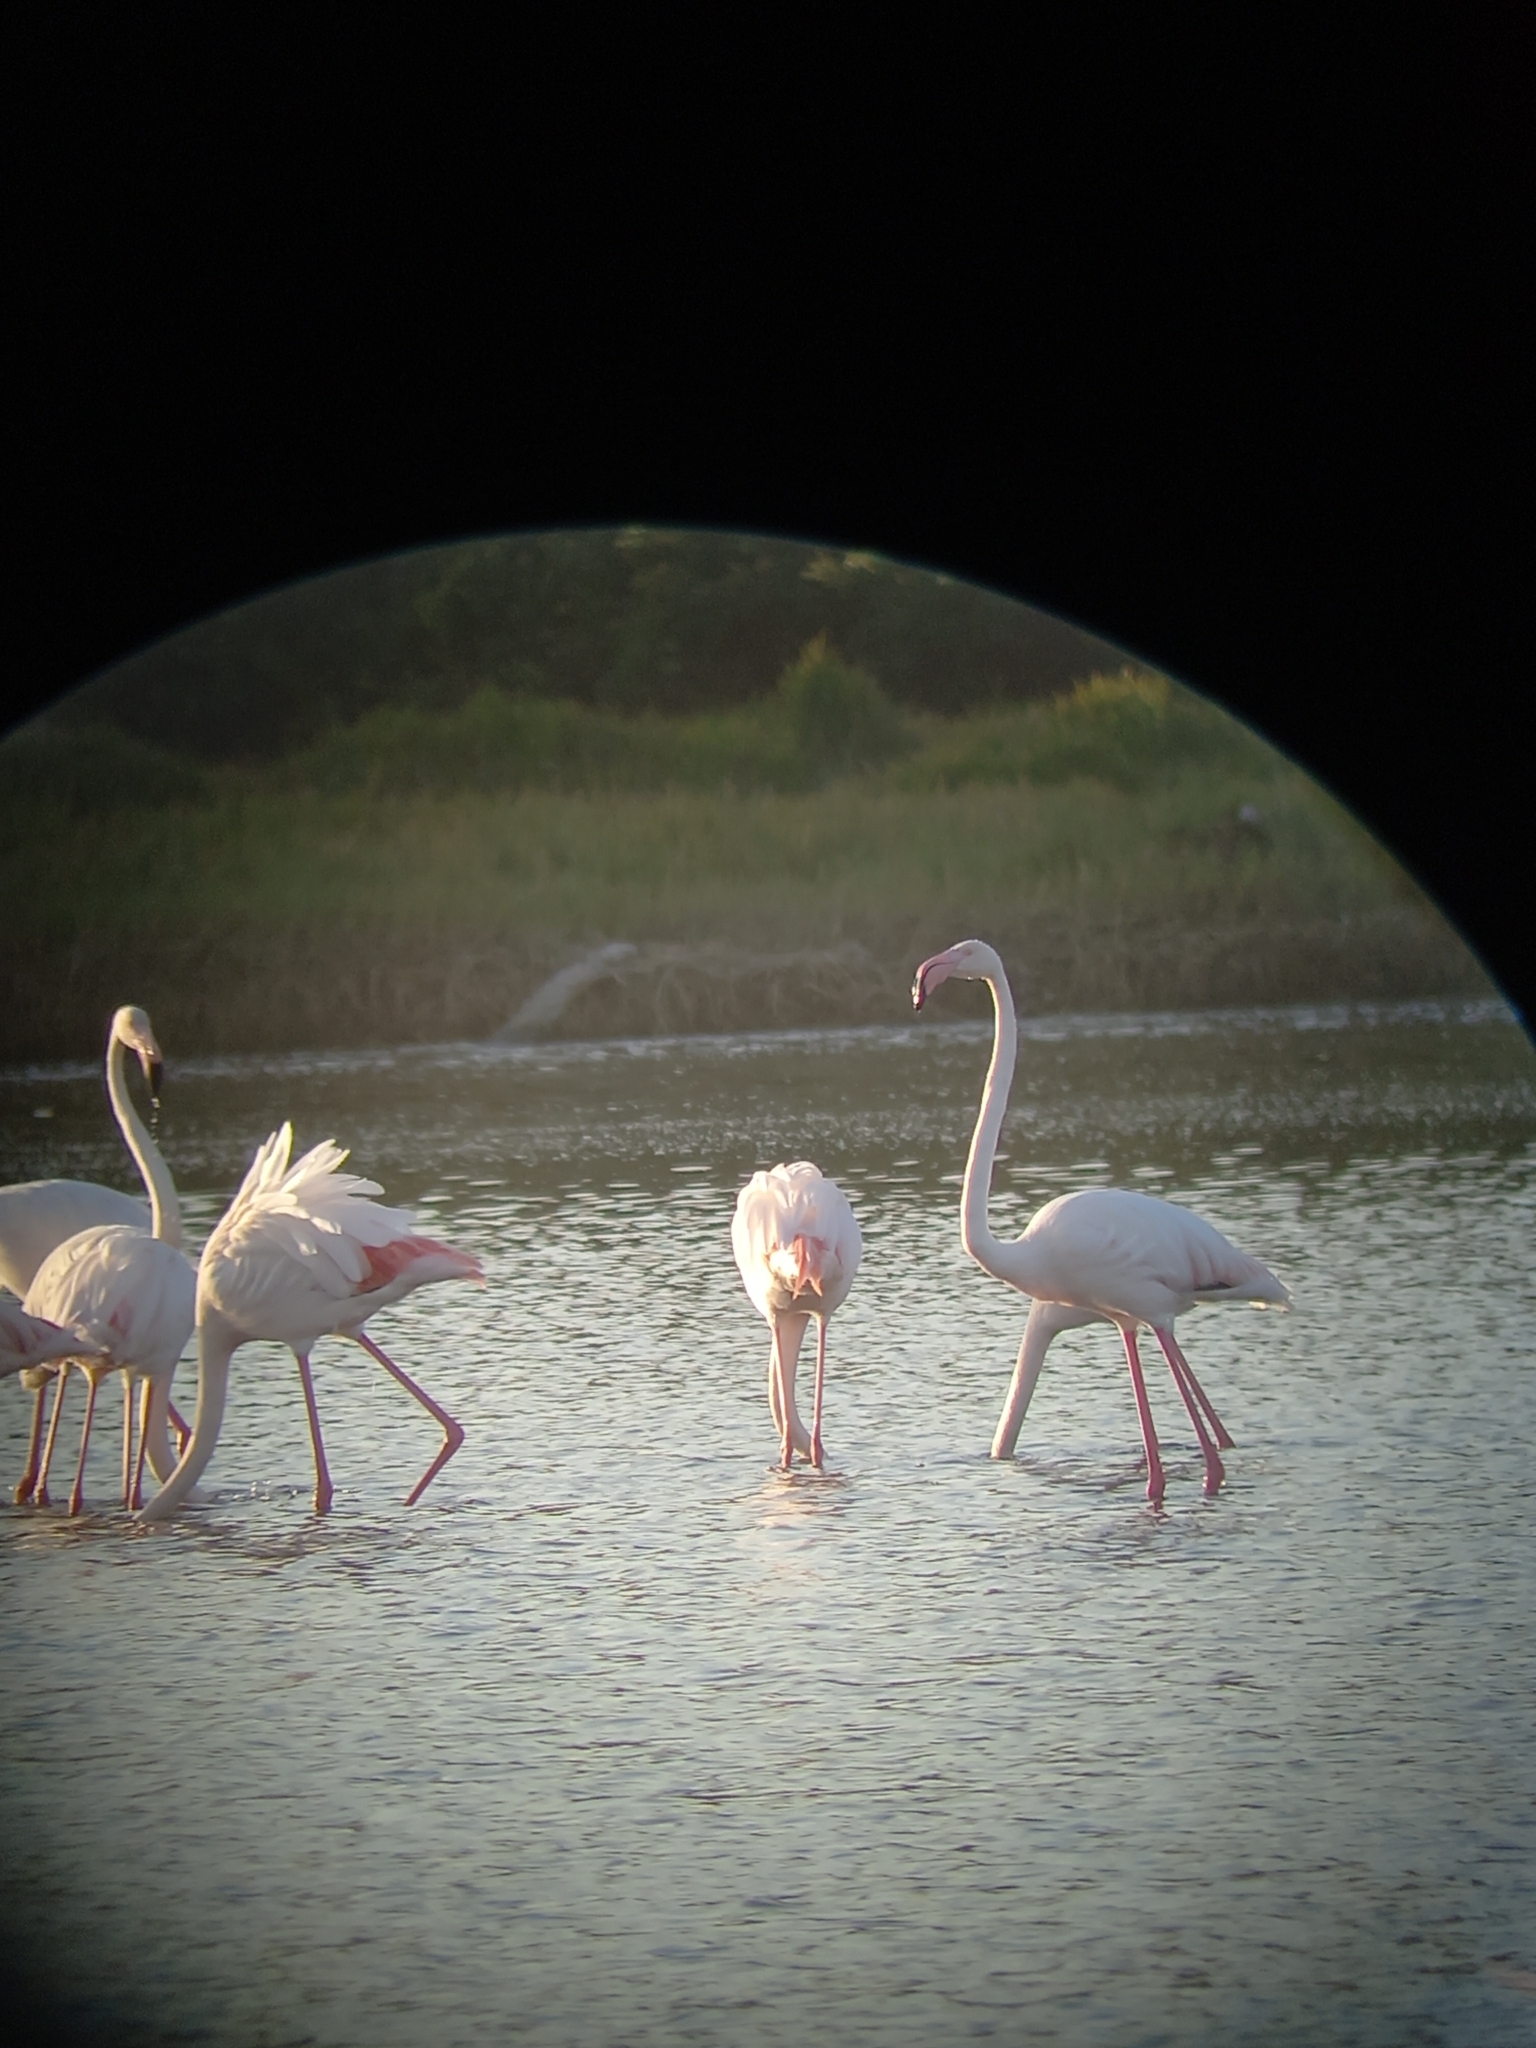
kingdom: Animalia
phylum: Chordata
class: Aves
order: Phoenicopteriformes
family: Phoenicopteridae
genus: Phoenicopterus
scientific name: Phoenicopterus roseus
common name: Greater flamingo
